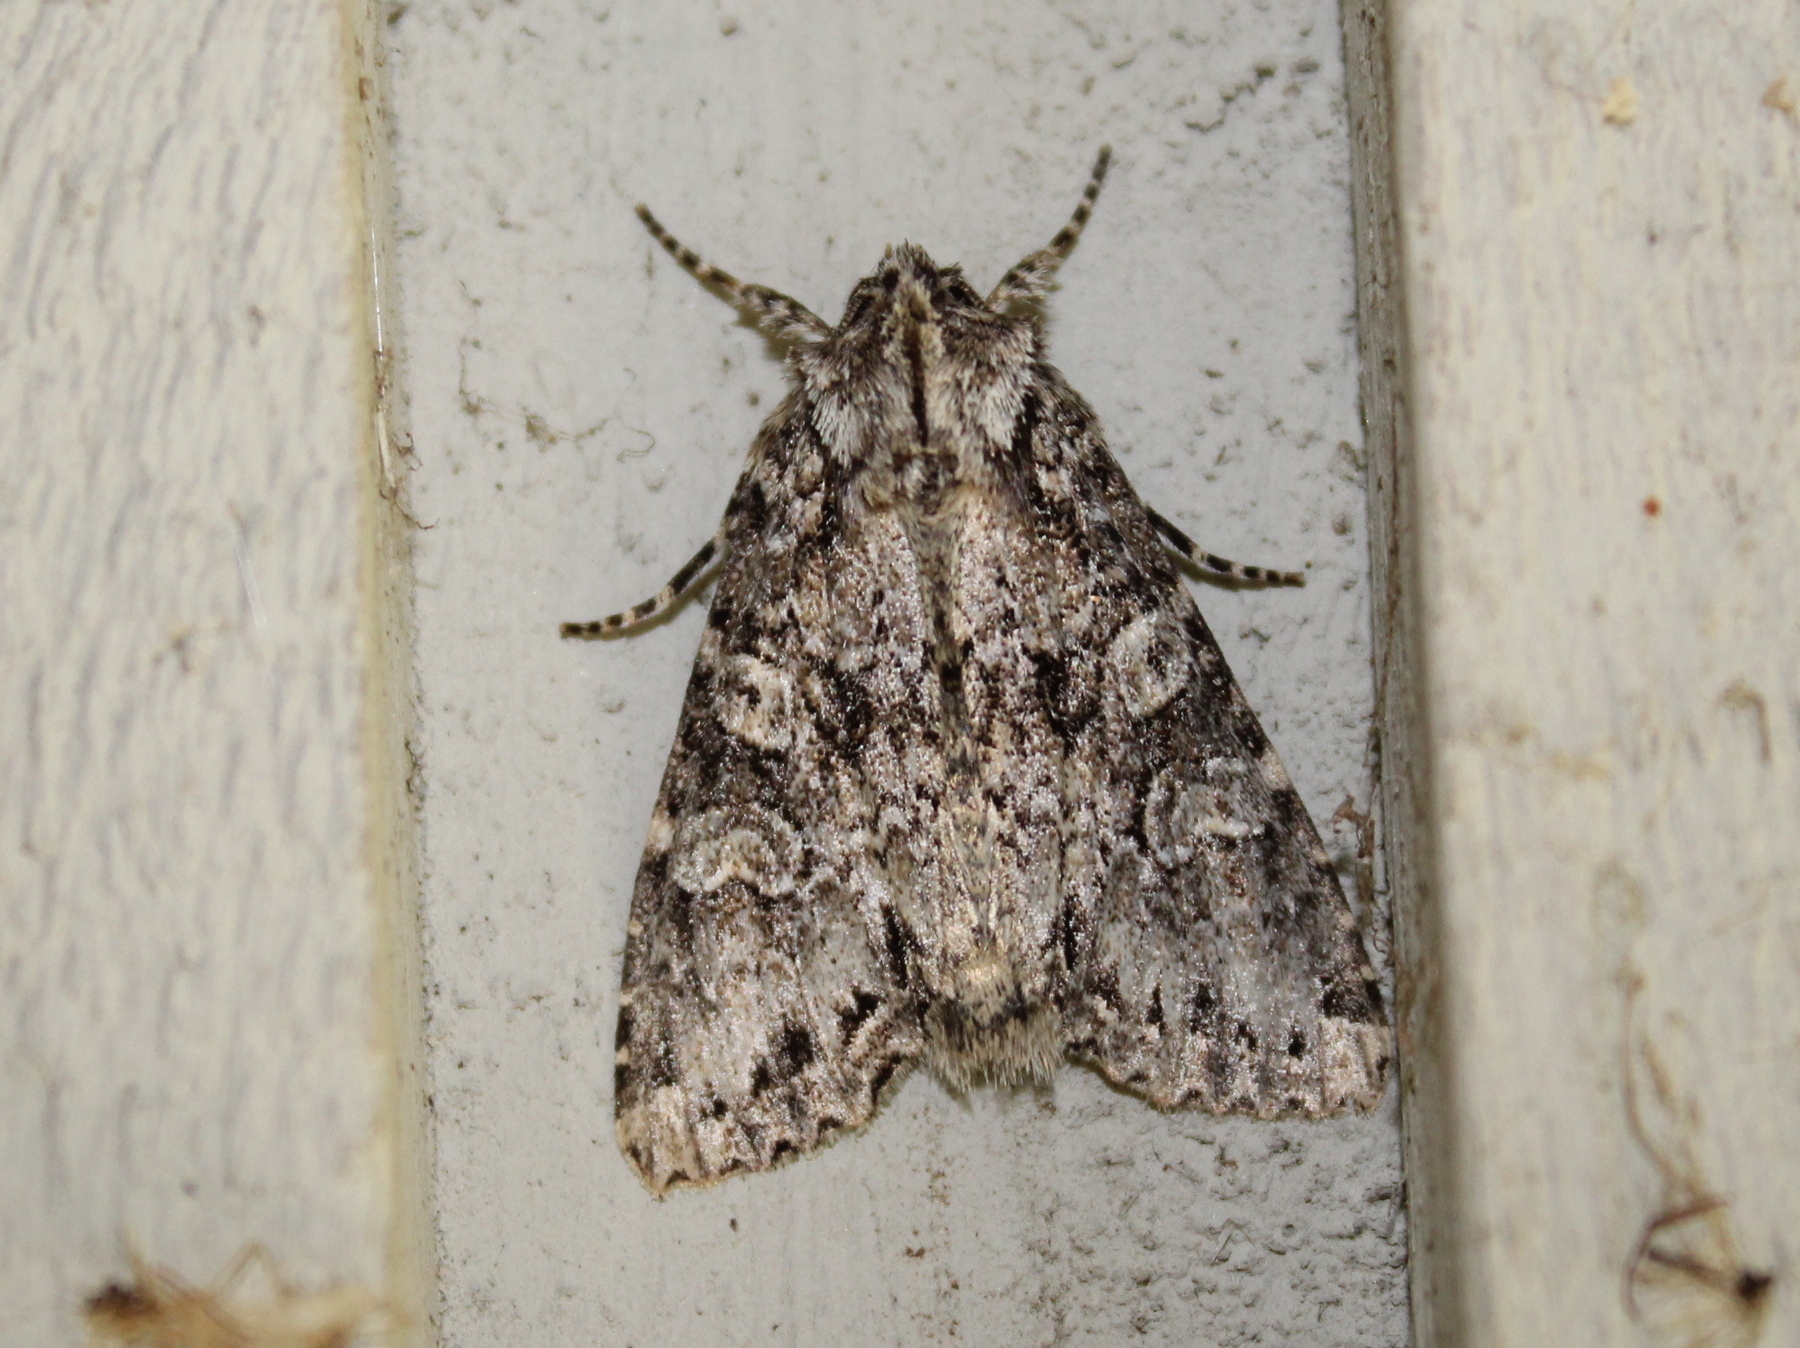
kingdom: Animalia
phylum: Arthropoda
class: Insecta
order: Lepidoptera
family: Noctuidae
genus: Polia
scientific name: Polia imbrifera
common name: Cloudy arches moth
